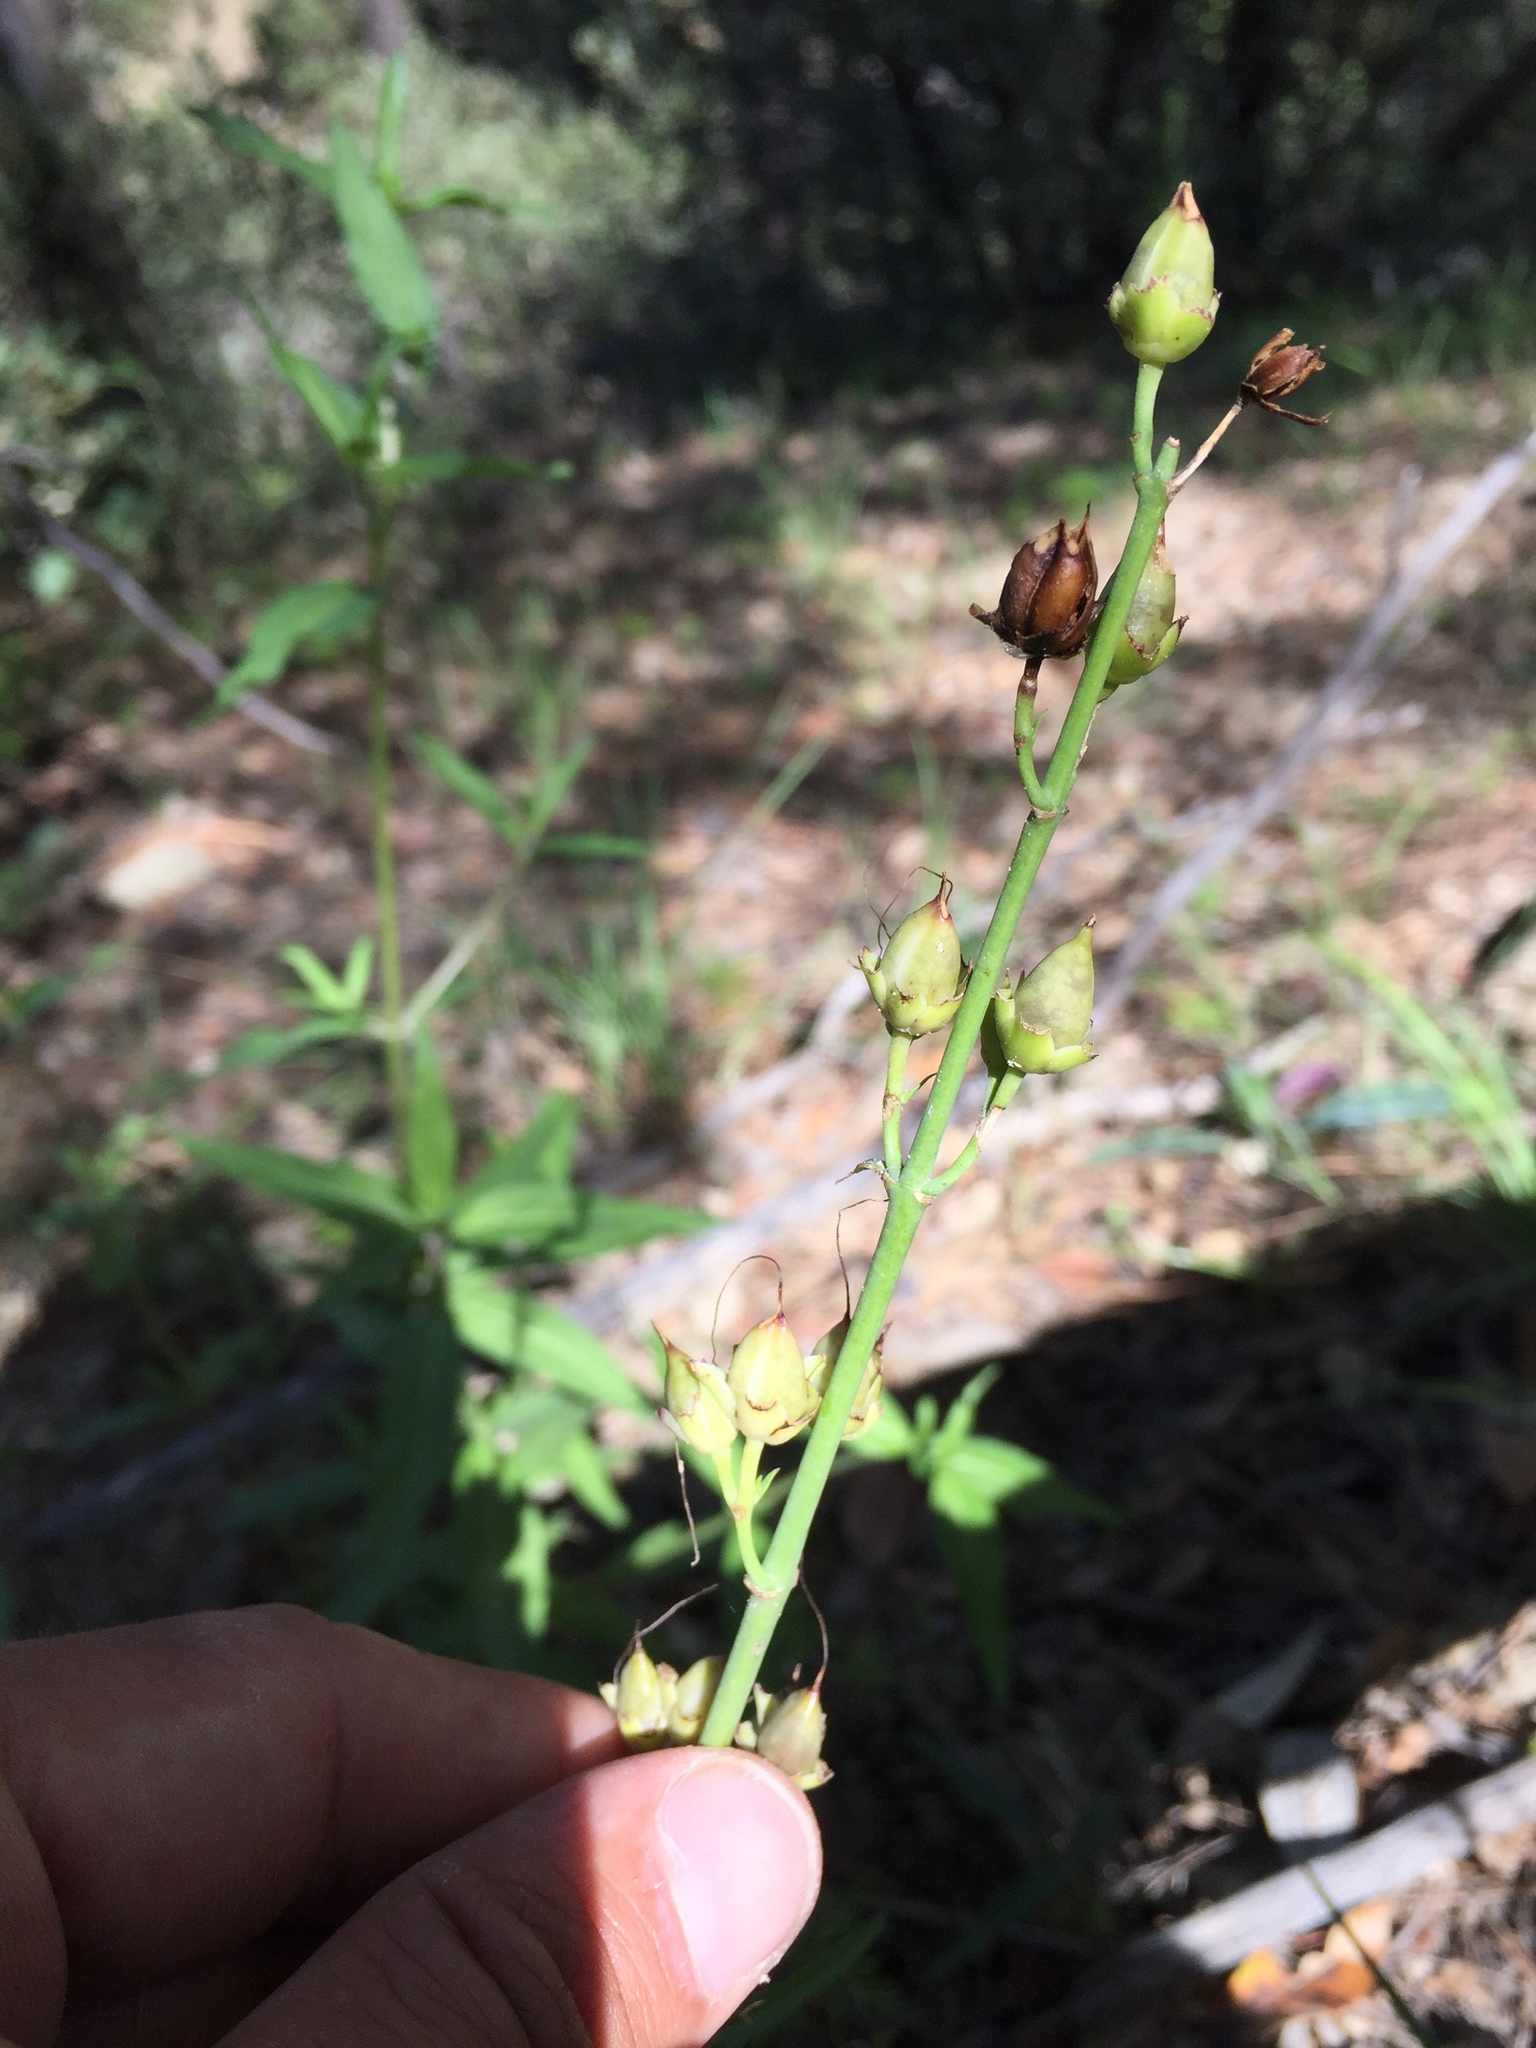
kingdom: Plantae
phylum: Tracheophyta
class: Magnoliopsida
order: Lamiales
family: Plantaginaceae
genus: Penstemon
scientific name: Penstemon
